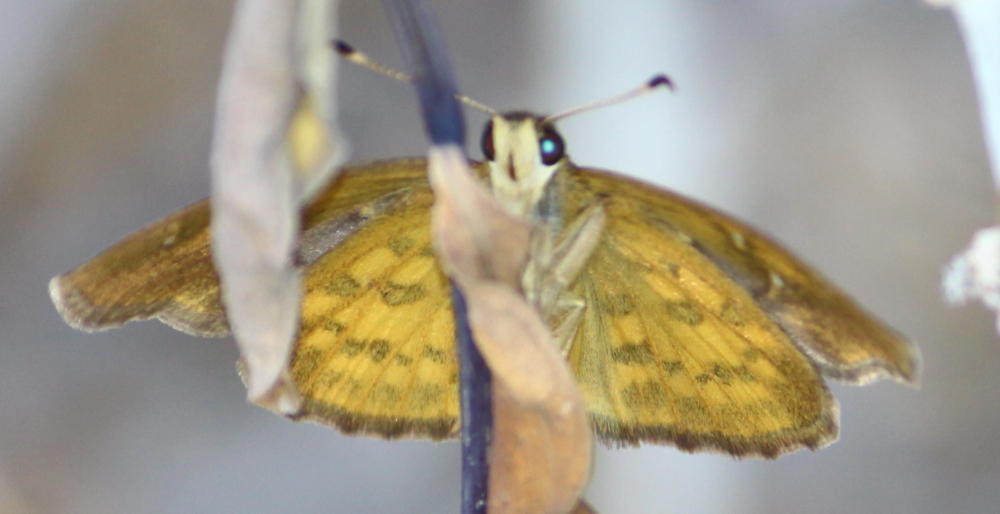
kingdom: Animalia
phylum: Arthropoda
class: Insecta
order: Lepidoptera
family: Hesperiidae
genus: Sarangesa
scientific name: Sarangesa phidyle
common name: Small elfin
